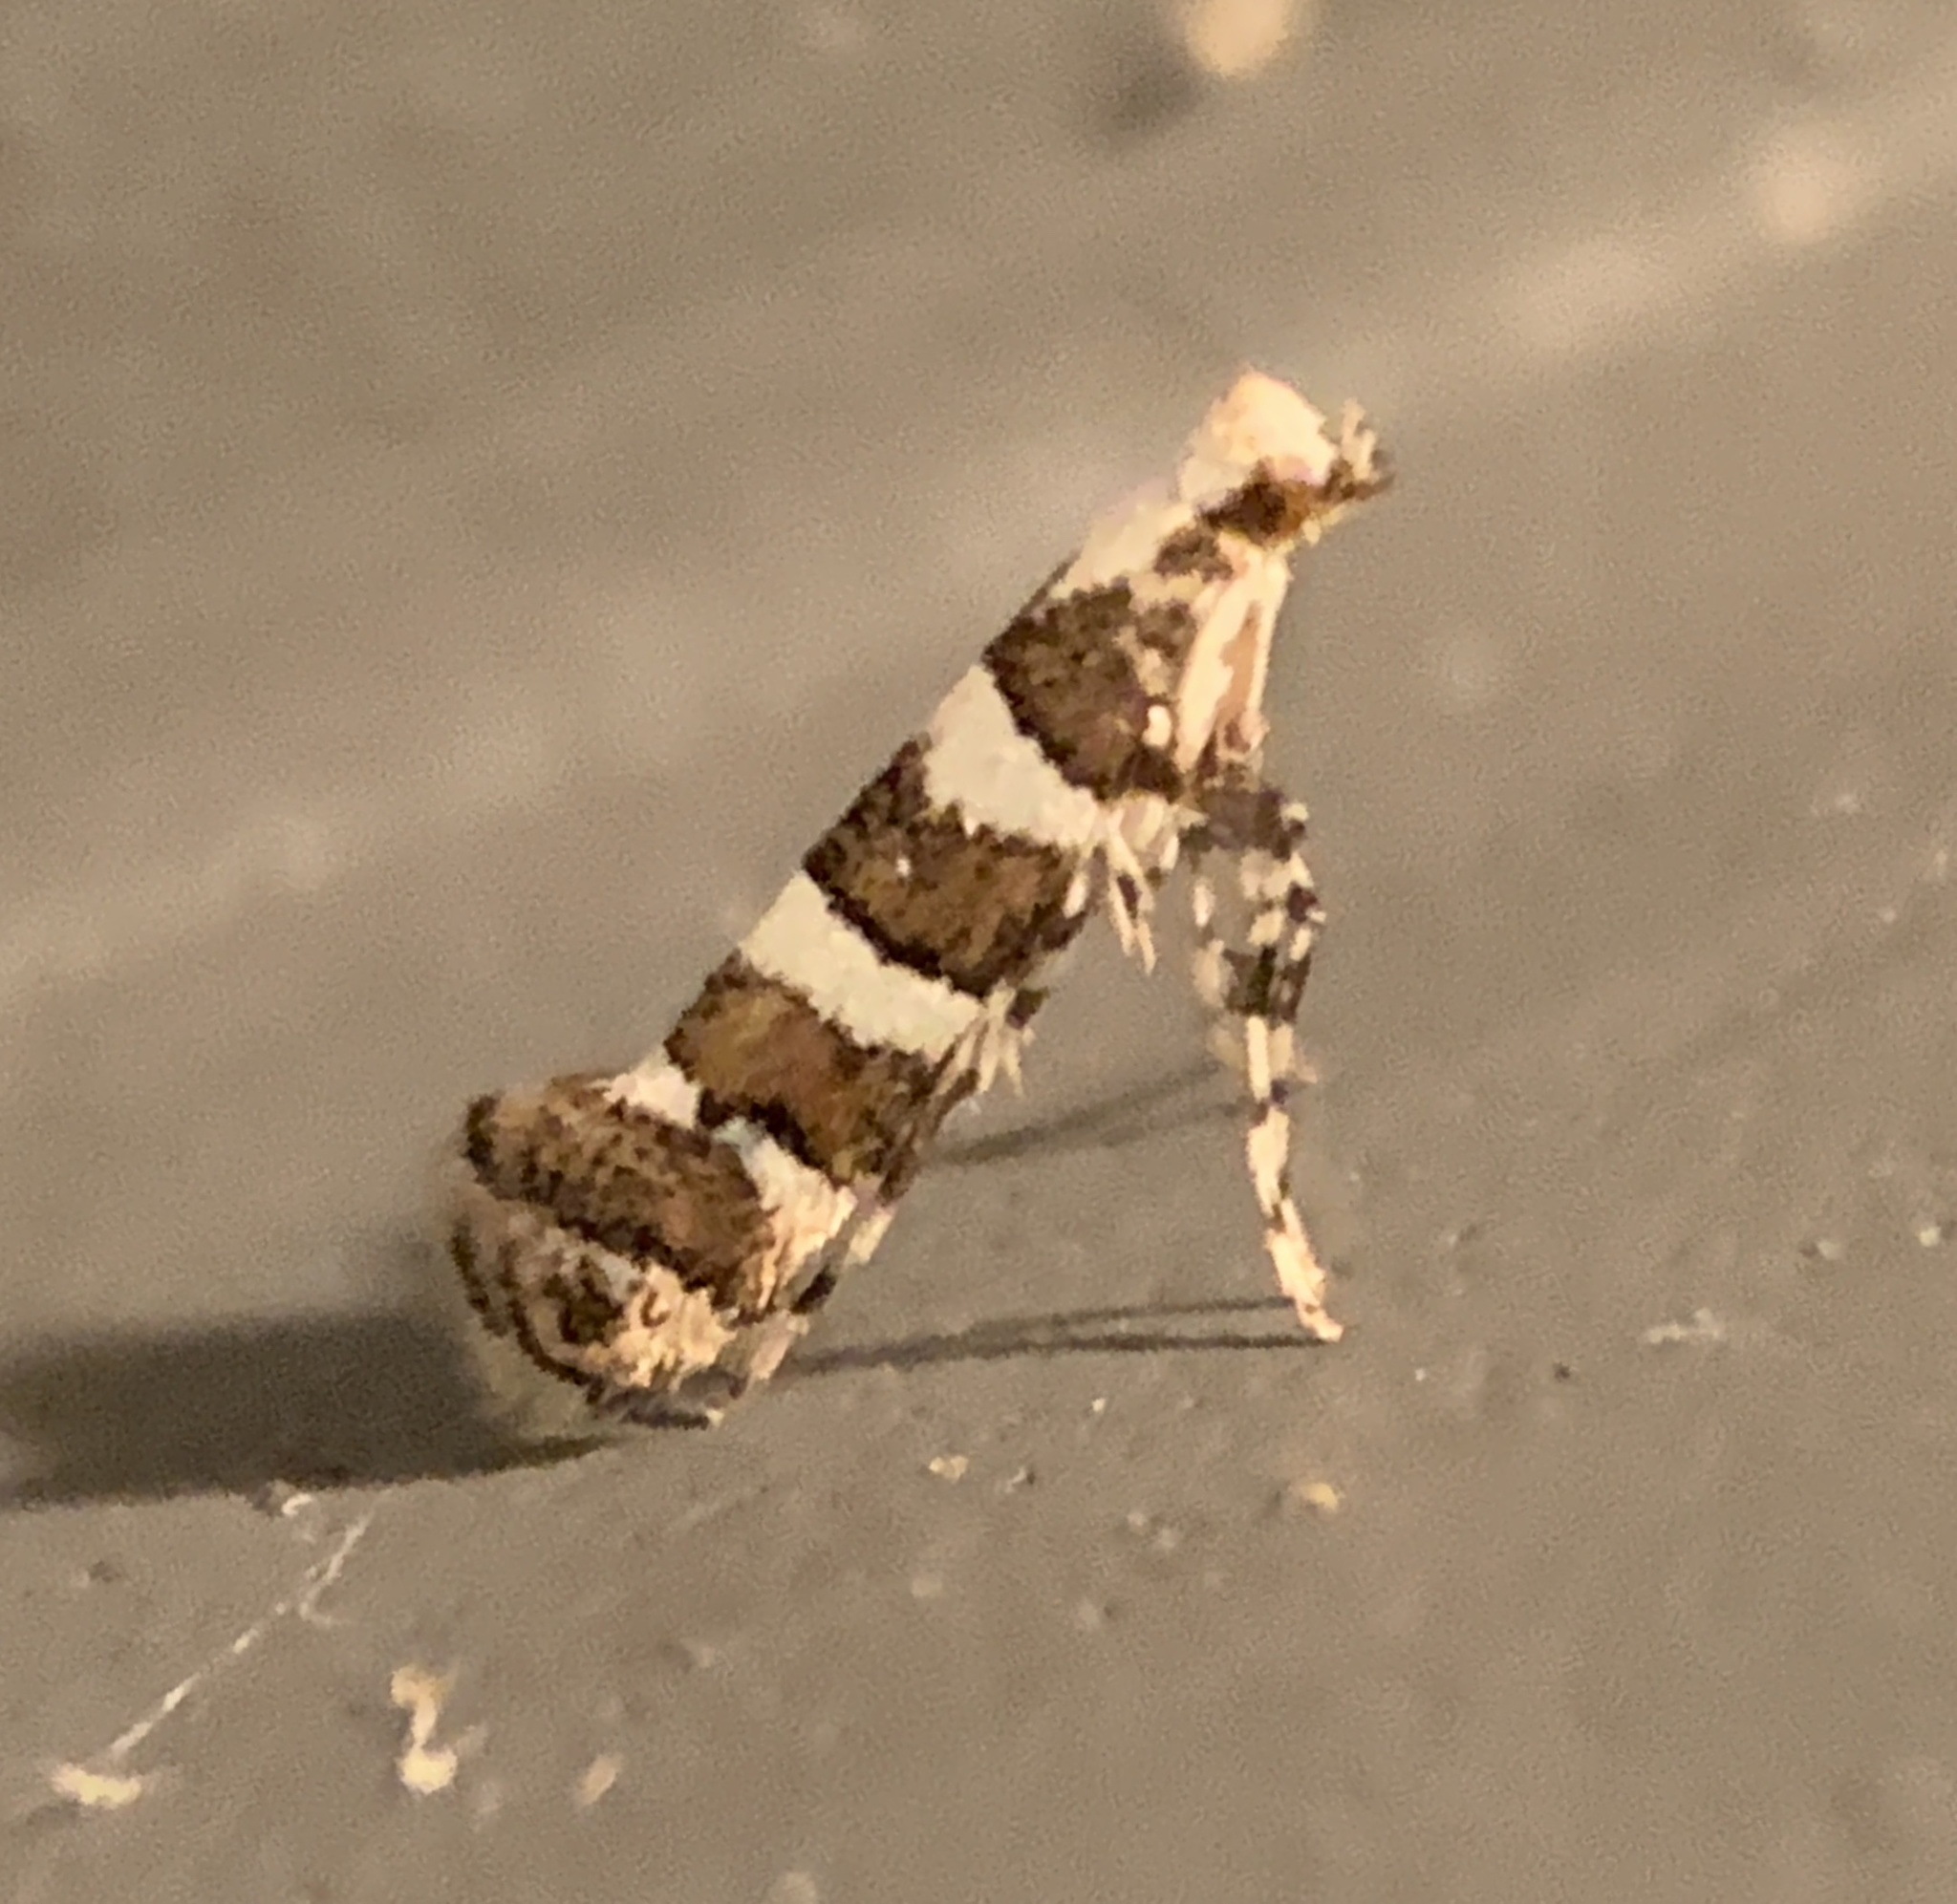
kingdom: Animalia
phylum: Arthropoda
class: Insecta
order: Lepidoptera
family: Gracillariidae
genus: Marmara
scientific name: Marmara fasciella
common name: White pine barkminer moth
